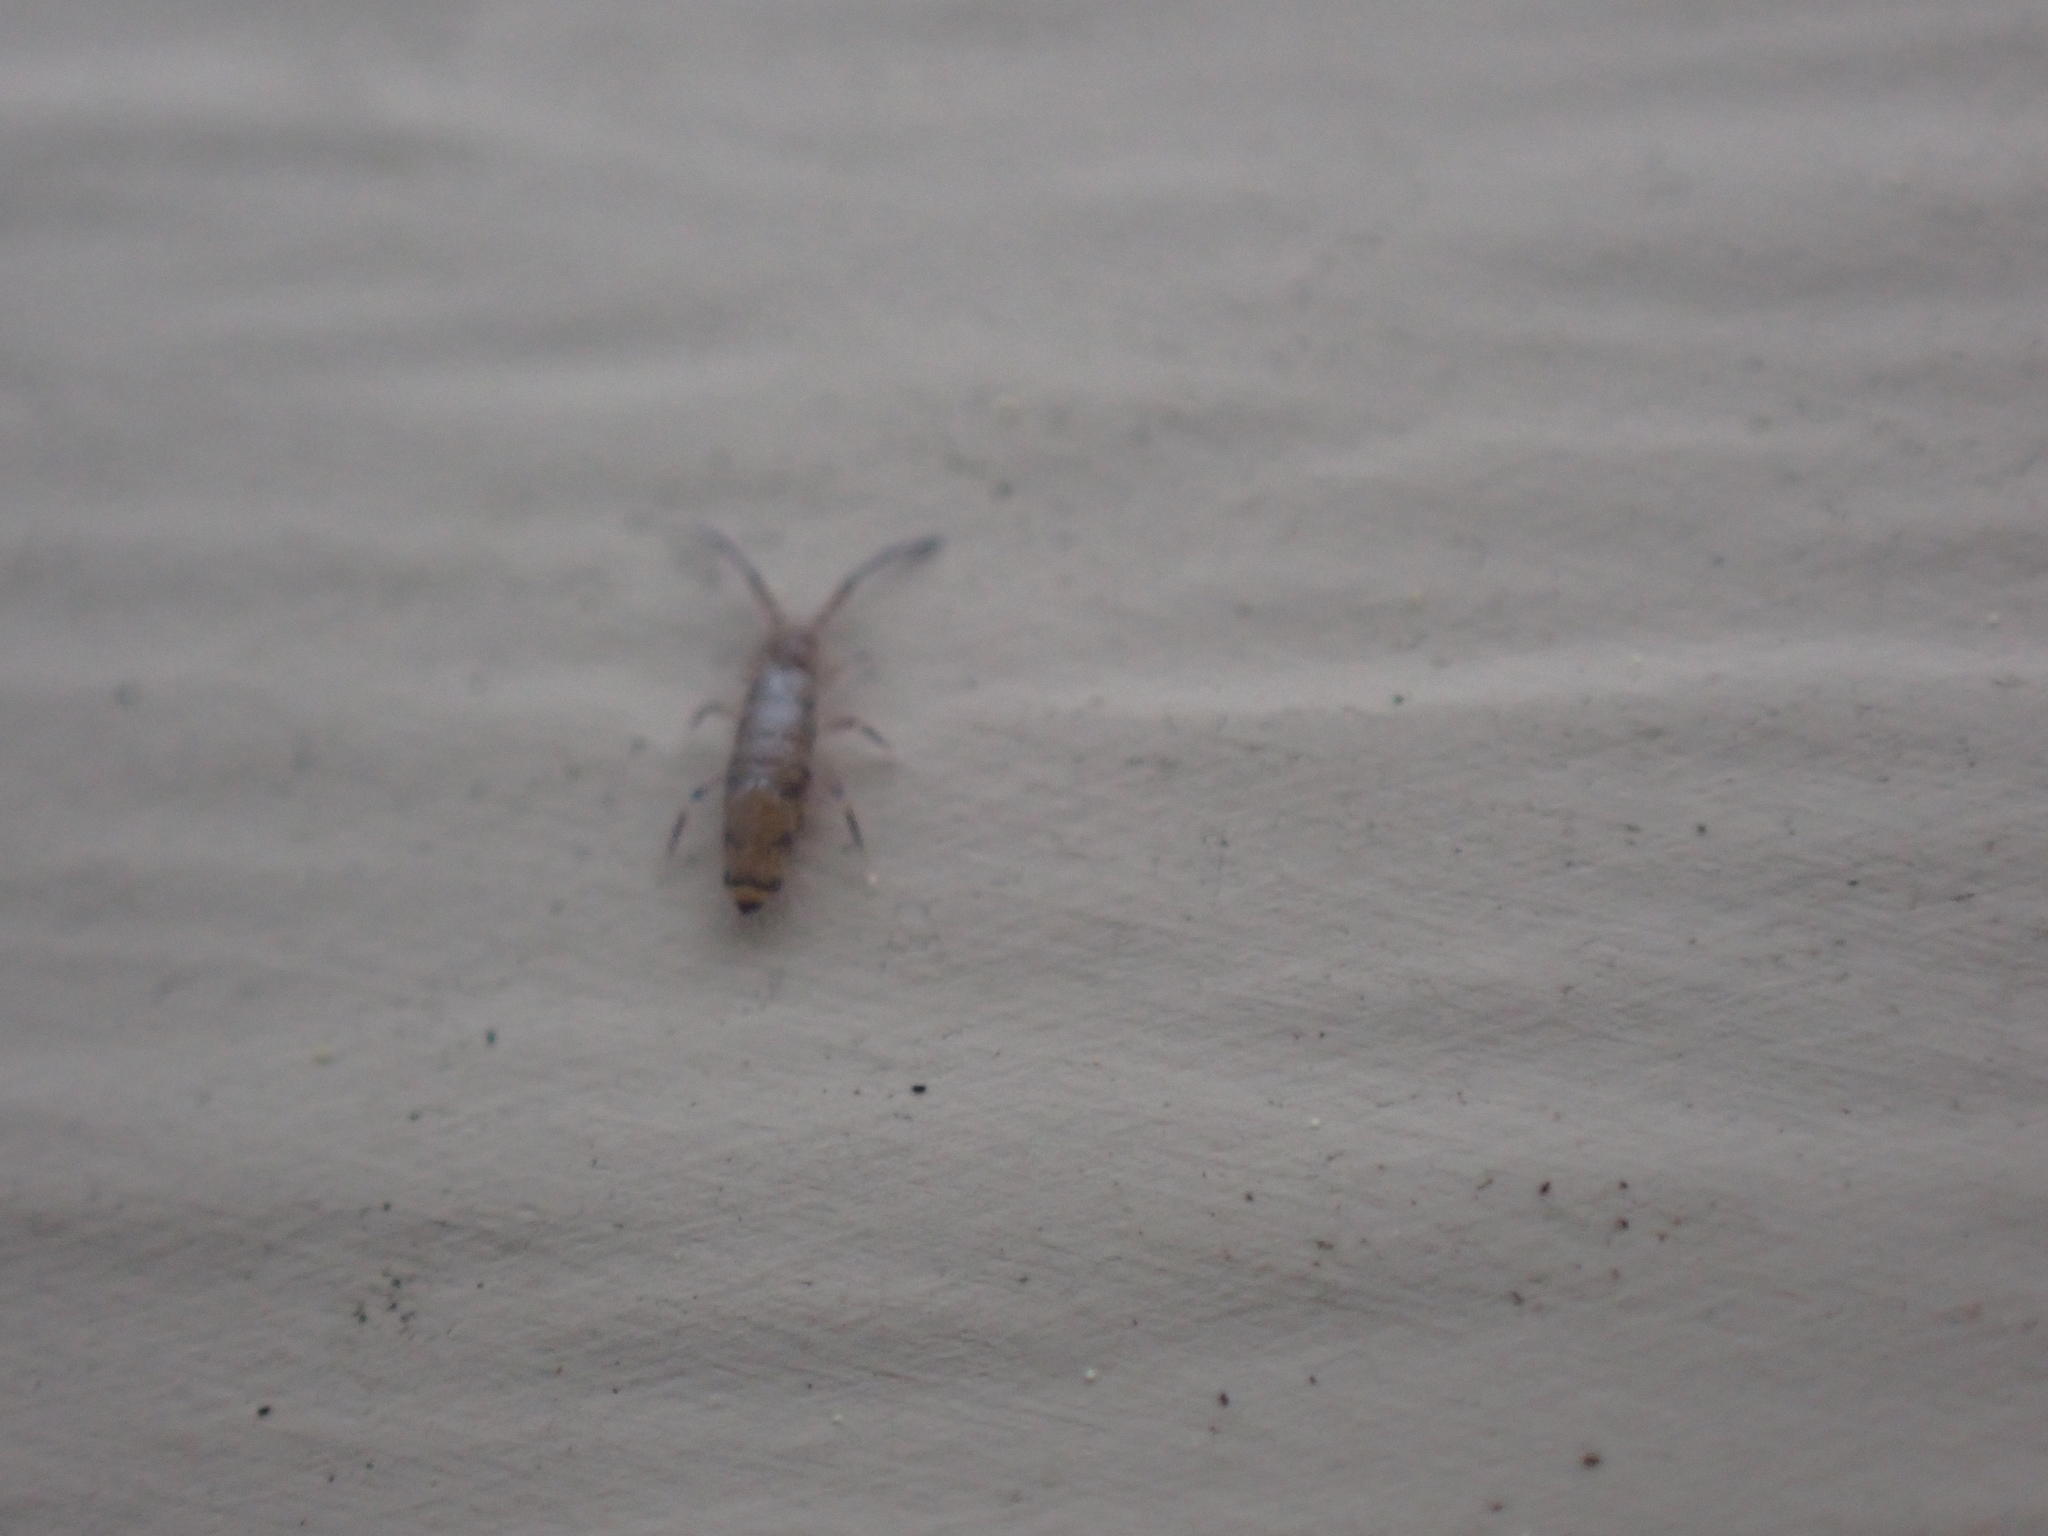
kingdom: Animalia
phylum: Arthropoda
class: Collembola
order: Entomobryomorpha
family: Entomobryidae
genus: Willowsia
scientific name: Willowsia nigromaculata
